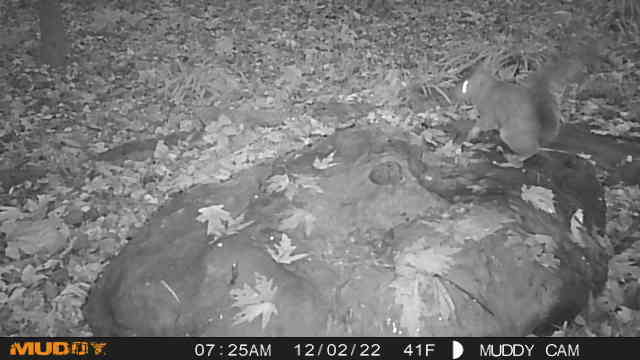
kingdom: Animalia
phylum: Chordata
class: Mammalia
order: Rodentia
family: Sciuridae
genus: Sciurus
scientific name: Sciurus carolinensis
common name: Eastern gray squirrel
